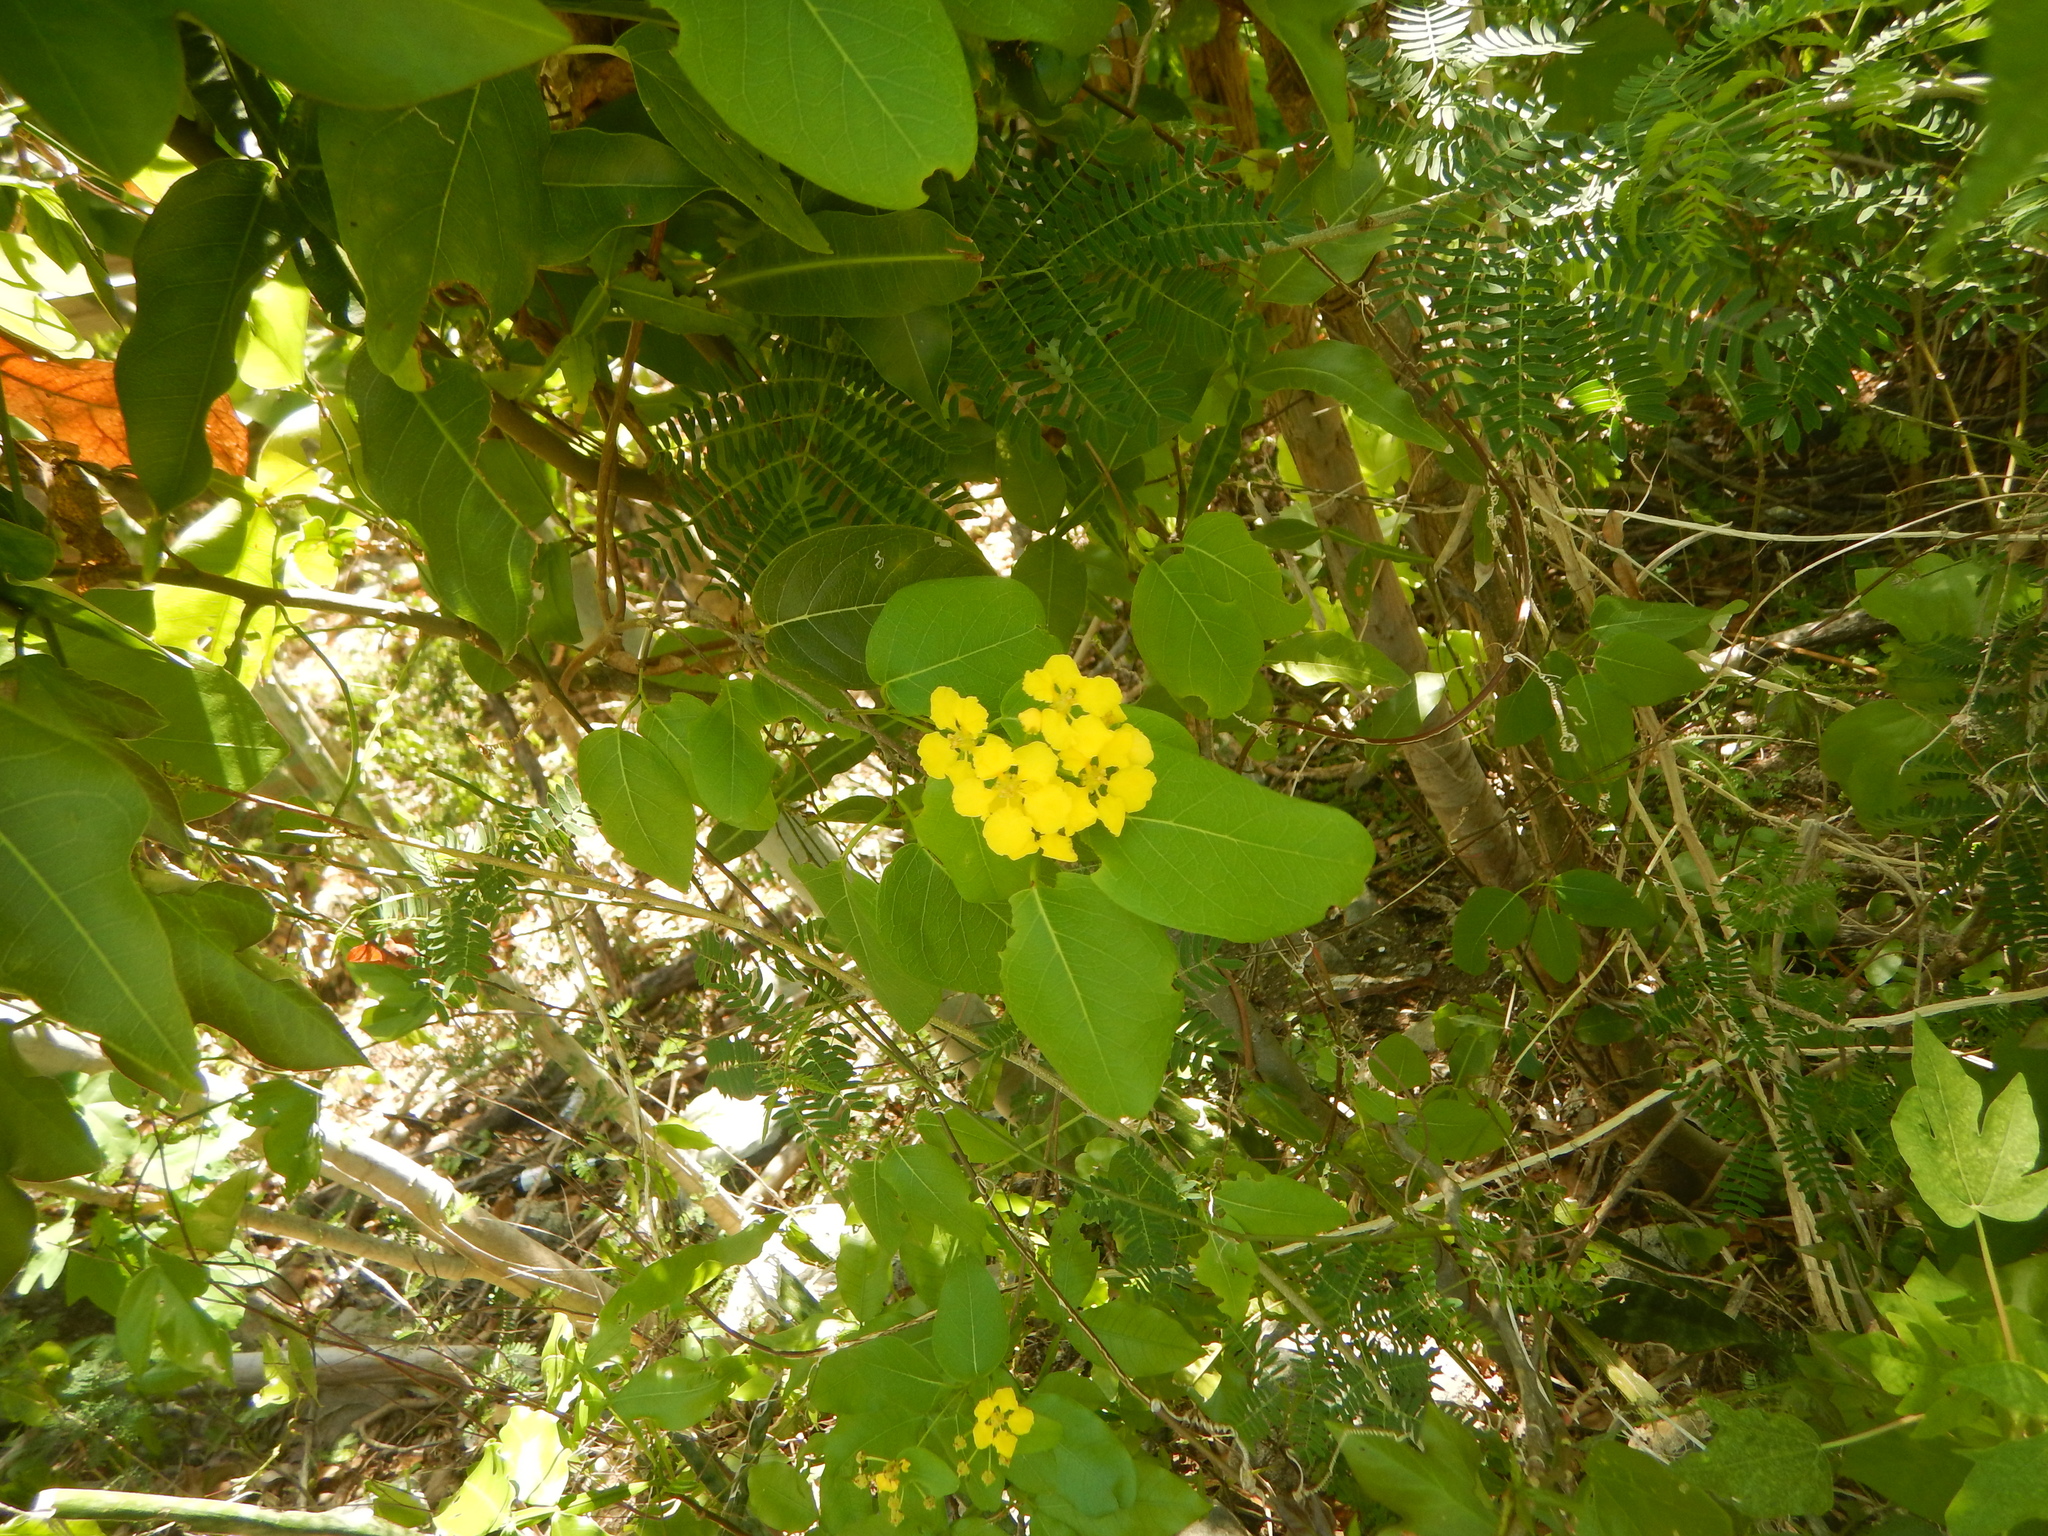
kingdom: Plantae
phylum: Tracheophyta
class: Magnoliopsida
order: Malpighiales
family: Malpighiaceae
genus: Stigmaphyllon
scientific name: Stigmaphyllon emarginatum
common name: Monarch amazonvine
